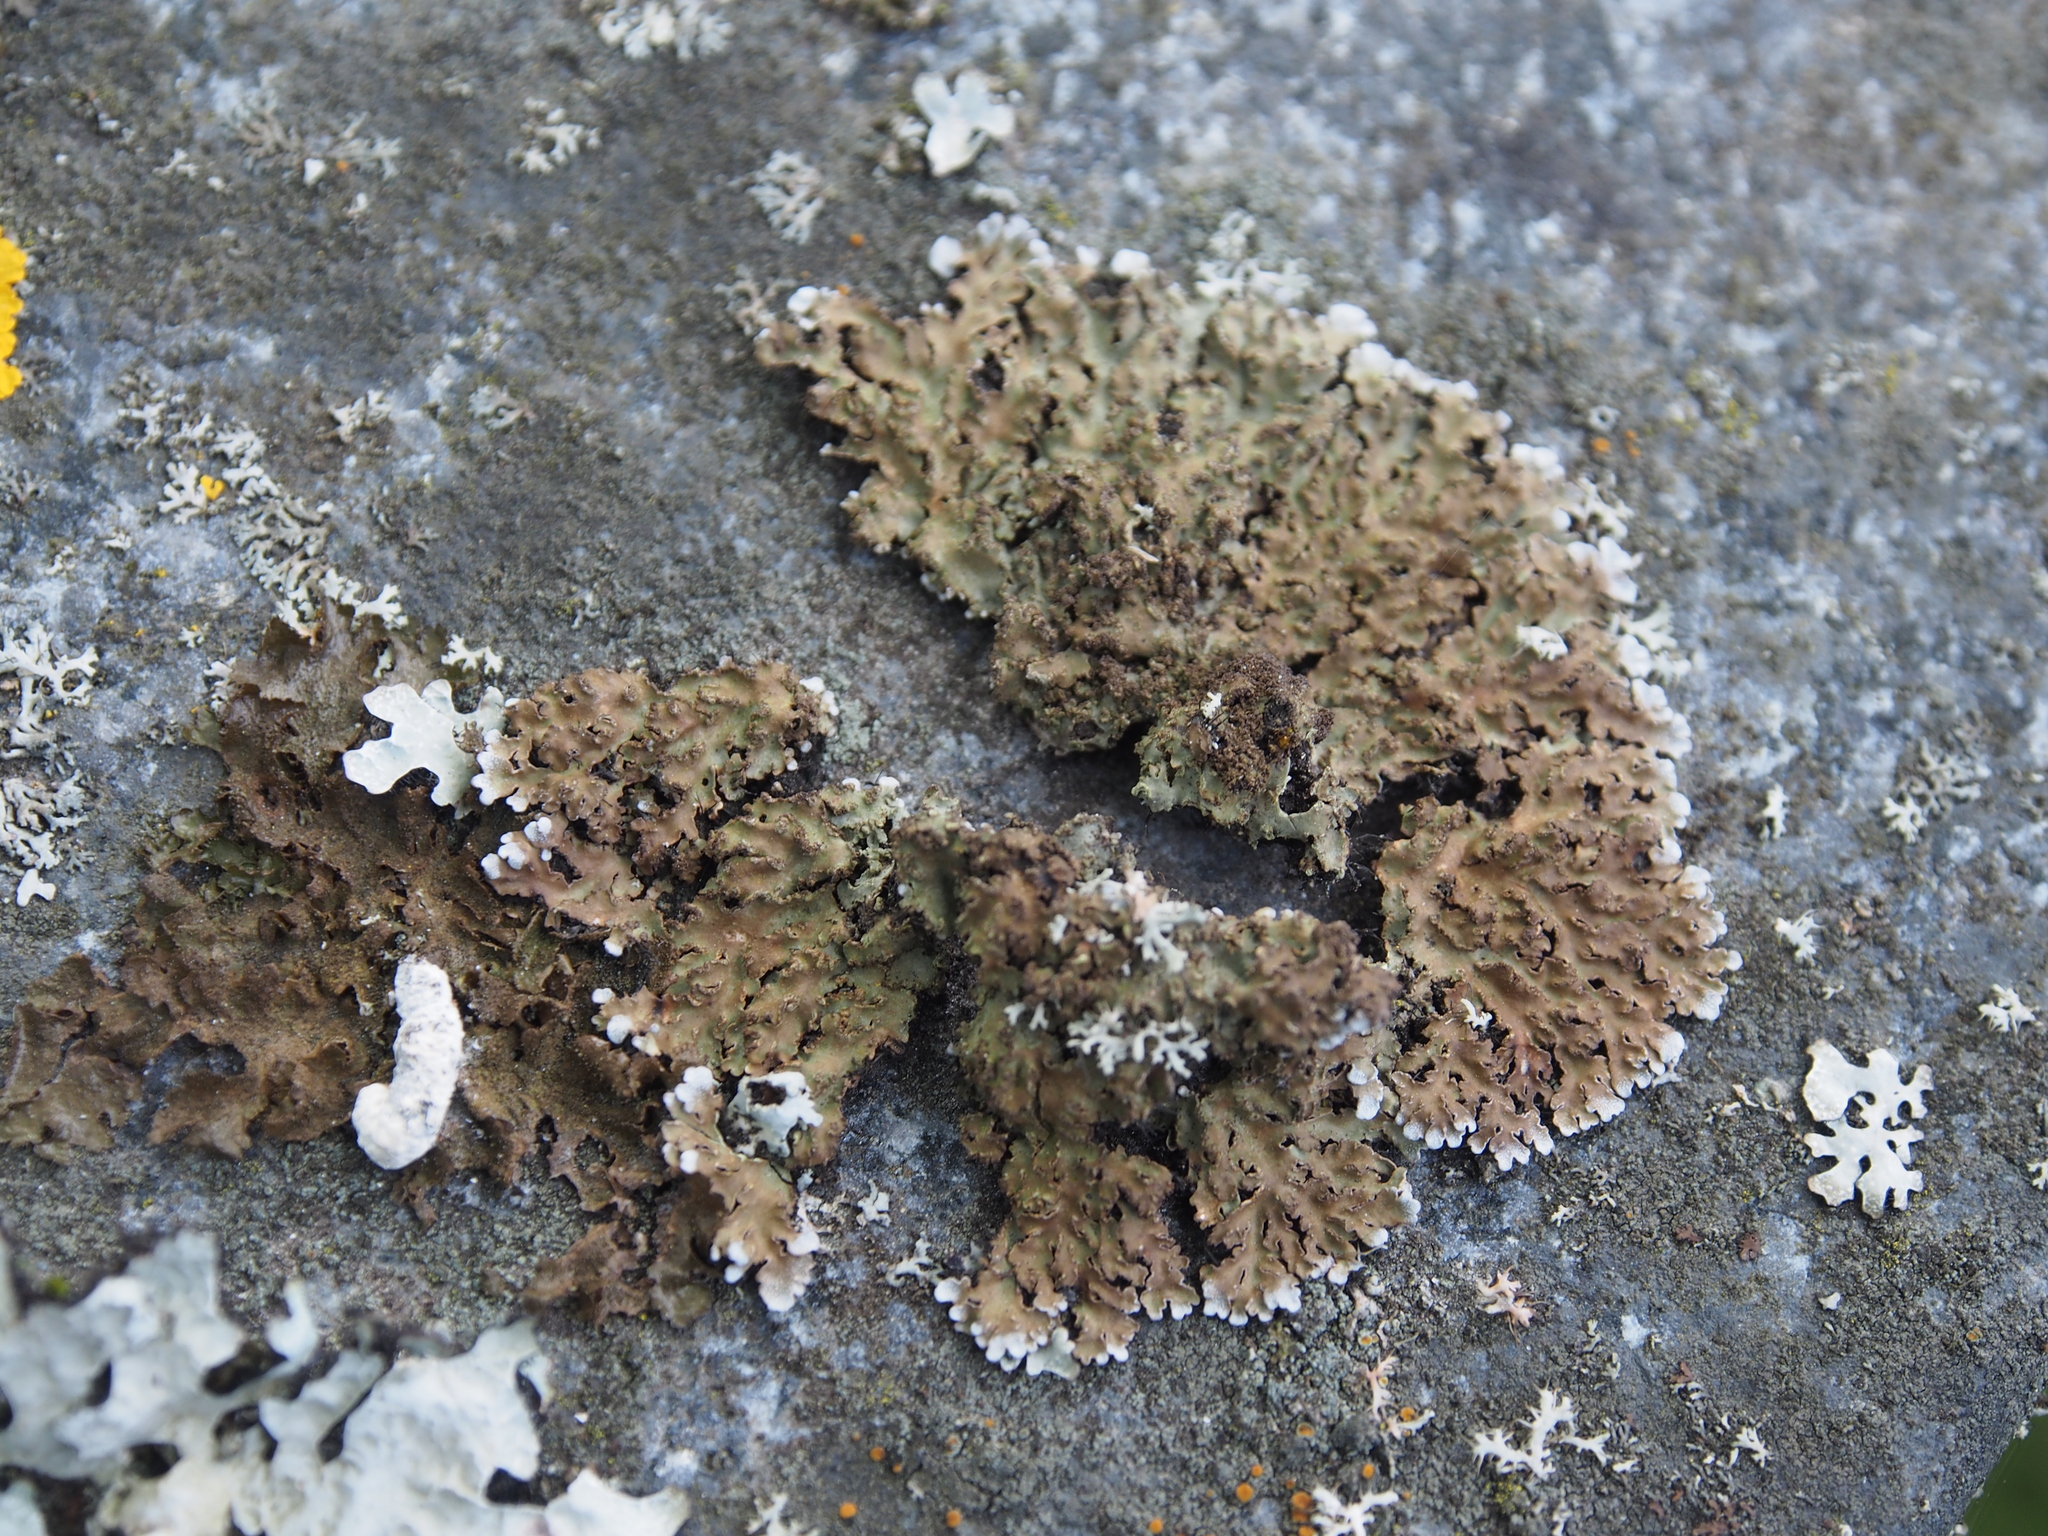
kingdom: Fungi
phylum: Ascomycota
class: Lecanoromycetes
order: Caliciales
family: Physciaceae
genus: Physconia
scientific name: Physconia enteroxantha
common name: Yellow-edged frost lichen
